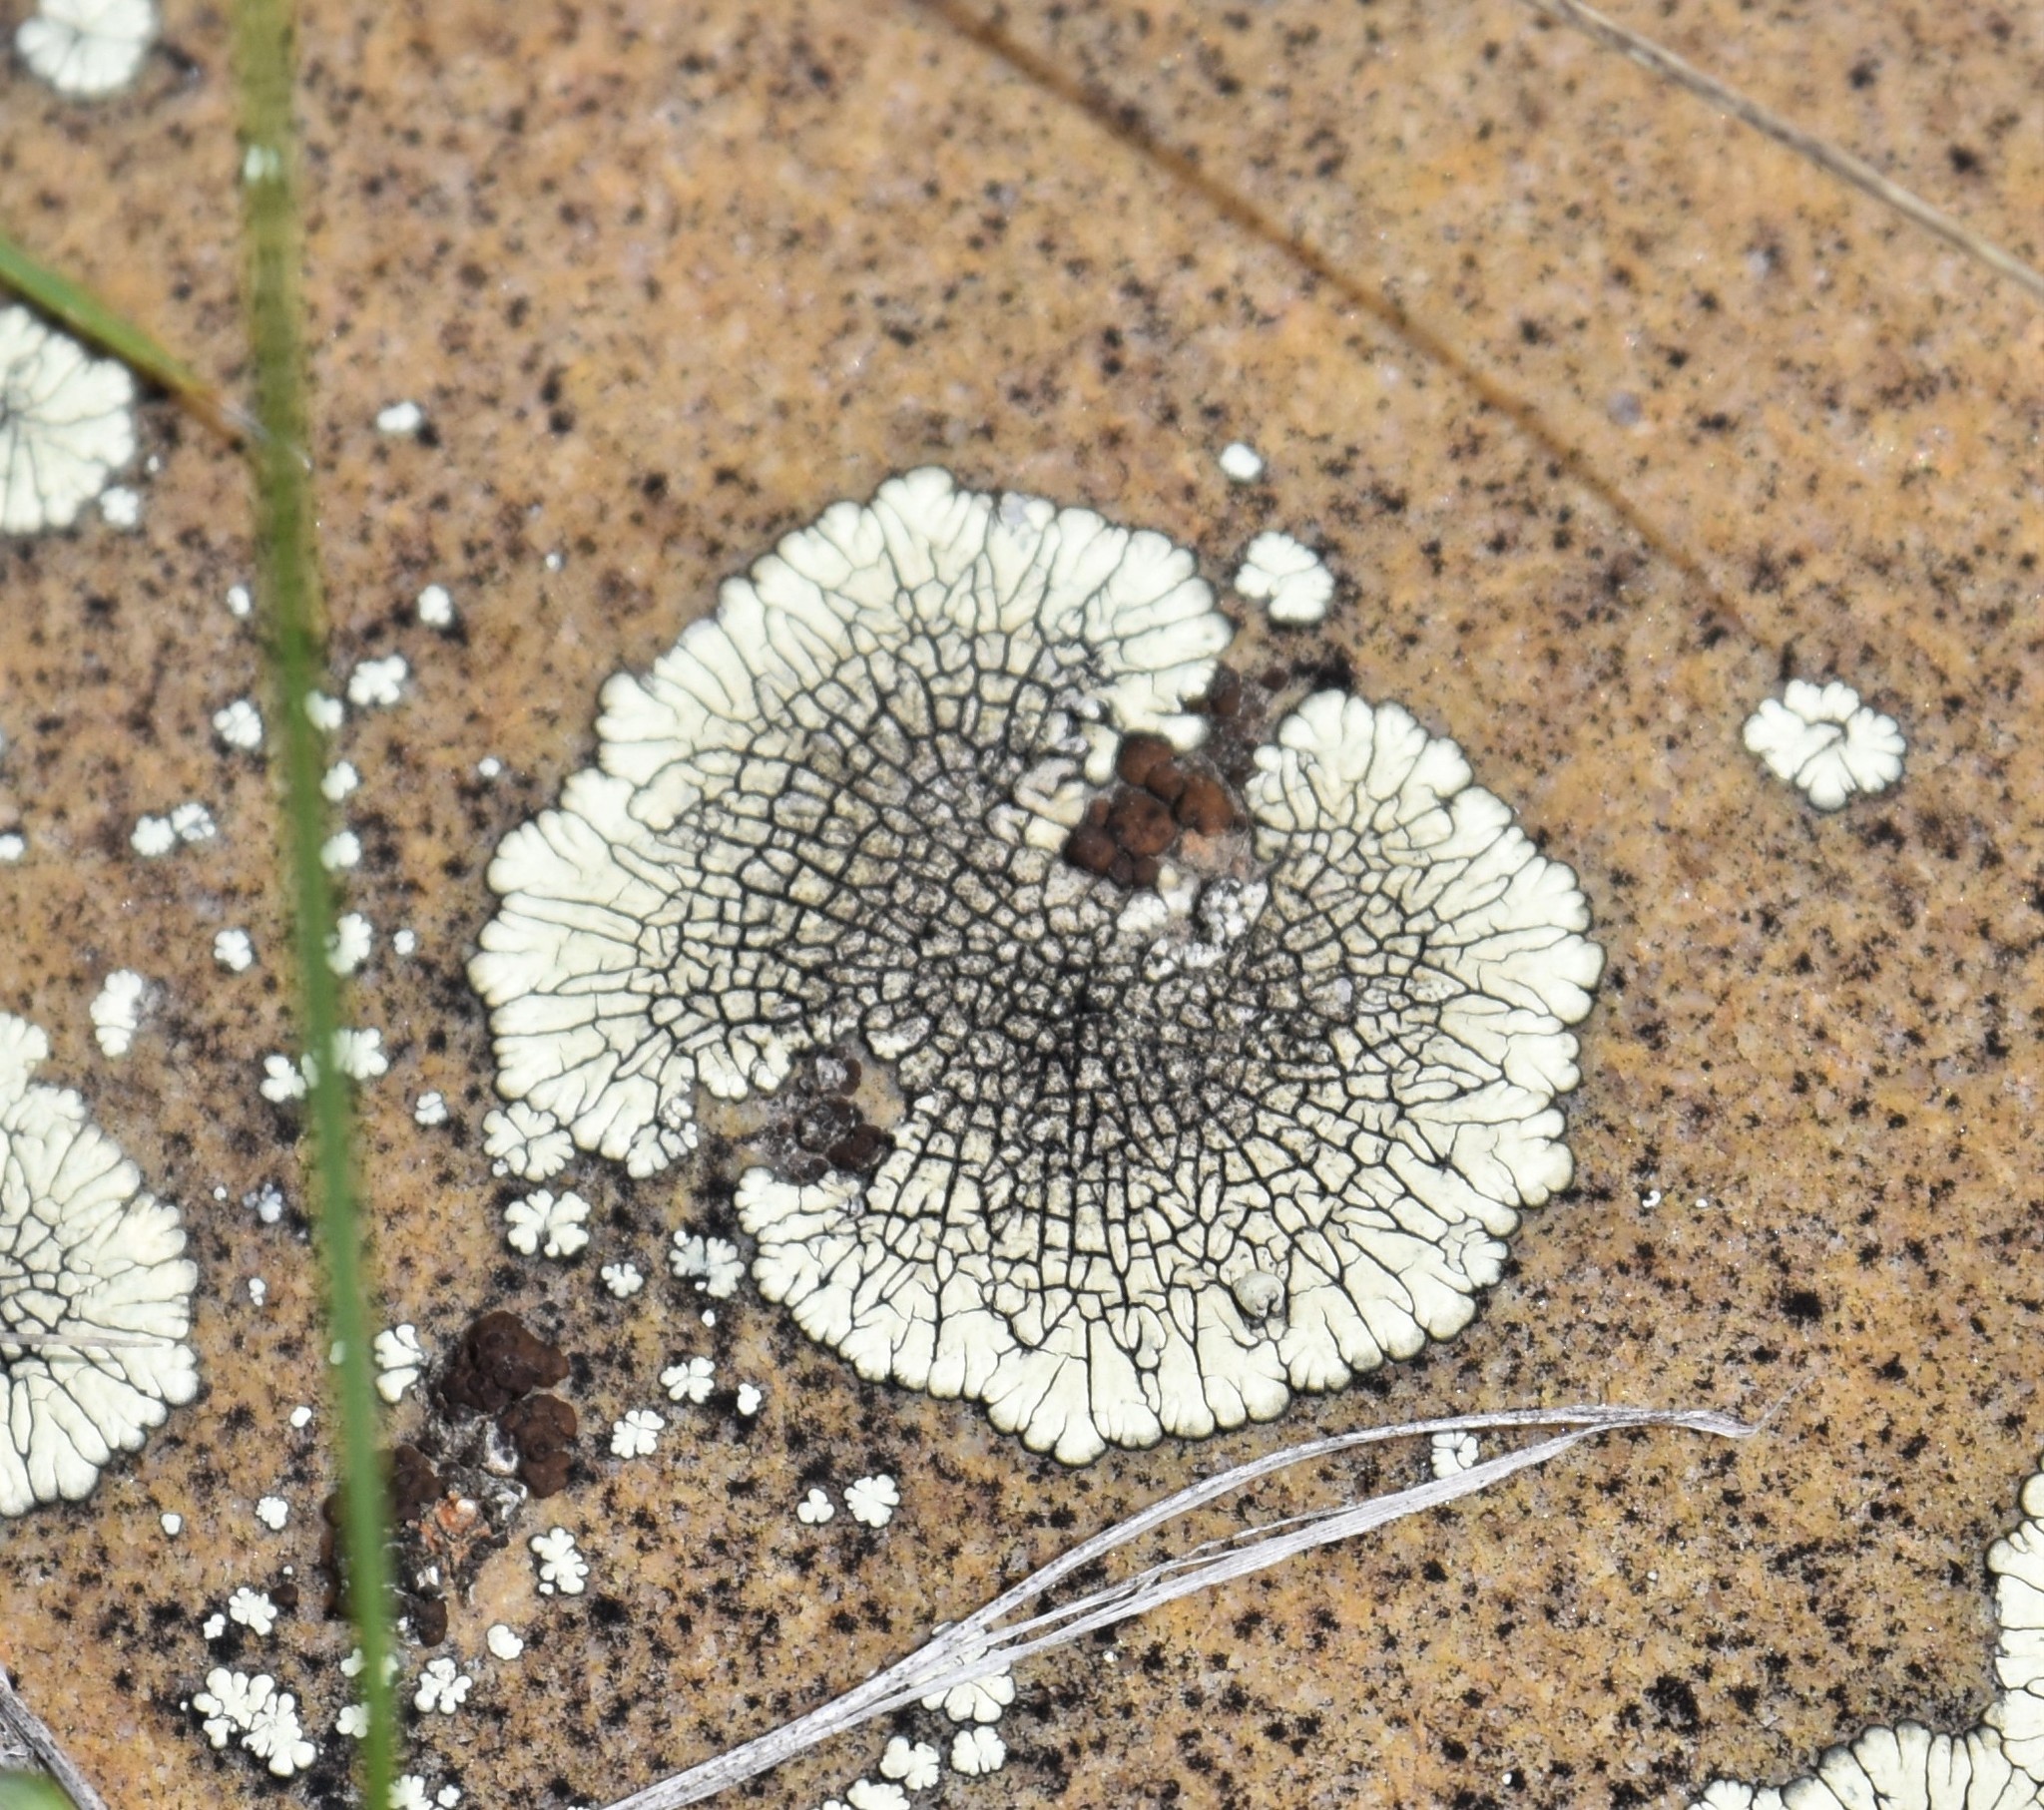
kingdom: Fungi
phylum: Ascomycota
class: Lecanoromycetes
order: Caliciales
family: Caliciaceae
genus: Dimelaena
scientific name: Dimelaena oreina
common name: Golden moonglow lichen
